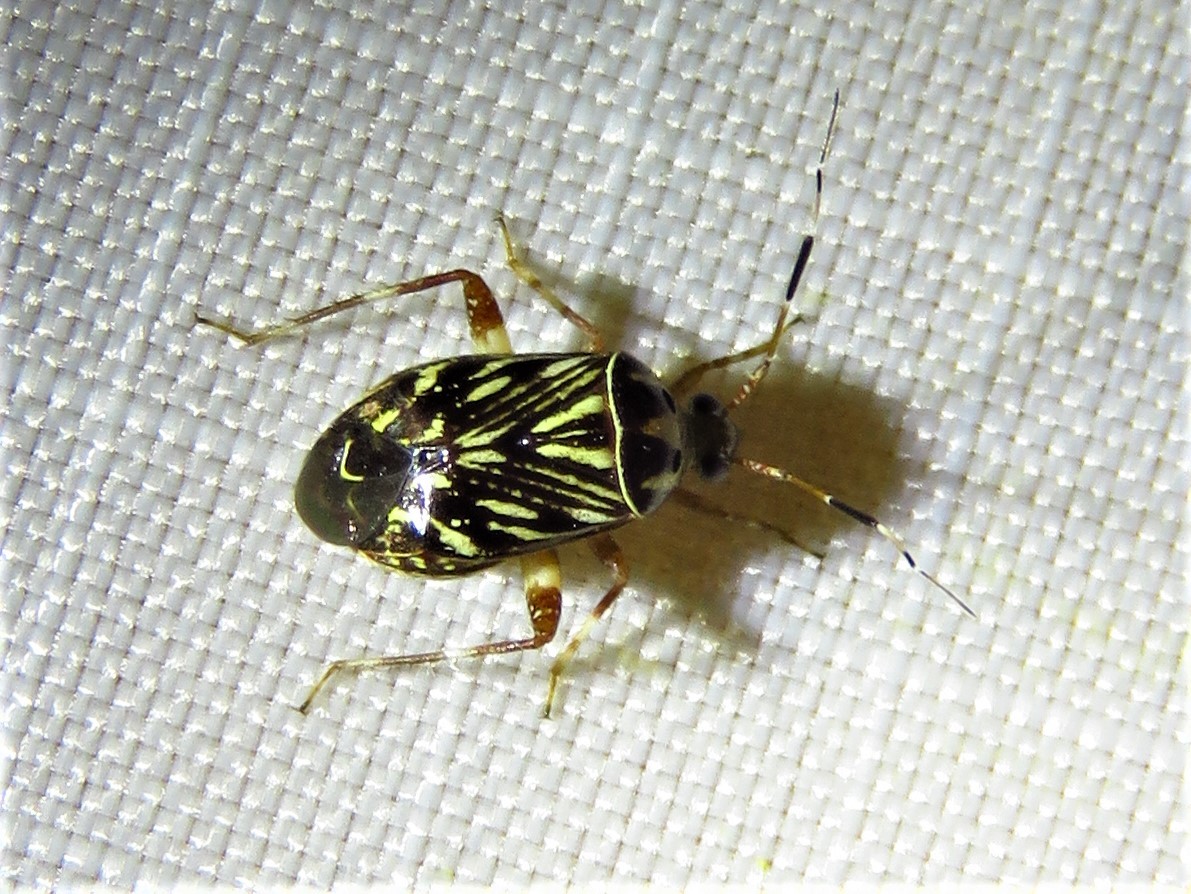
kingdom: Animalia
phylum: Arthropoda
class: Insecta
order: Hemiptera
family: Miridae
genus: Taedia
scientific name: Taedia virgulata
